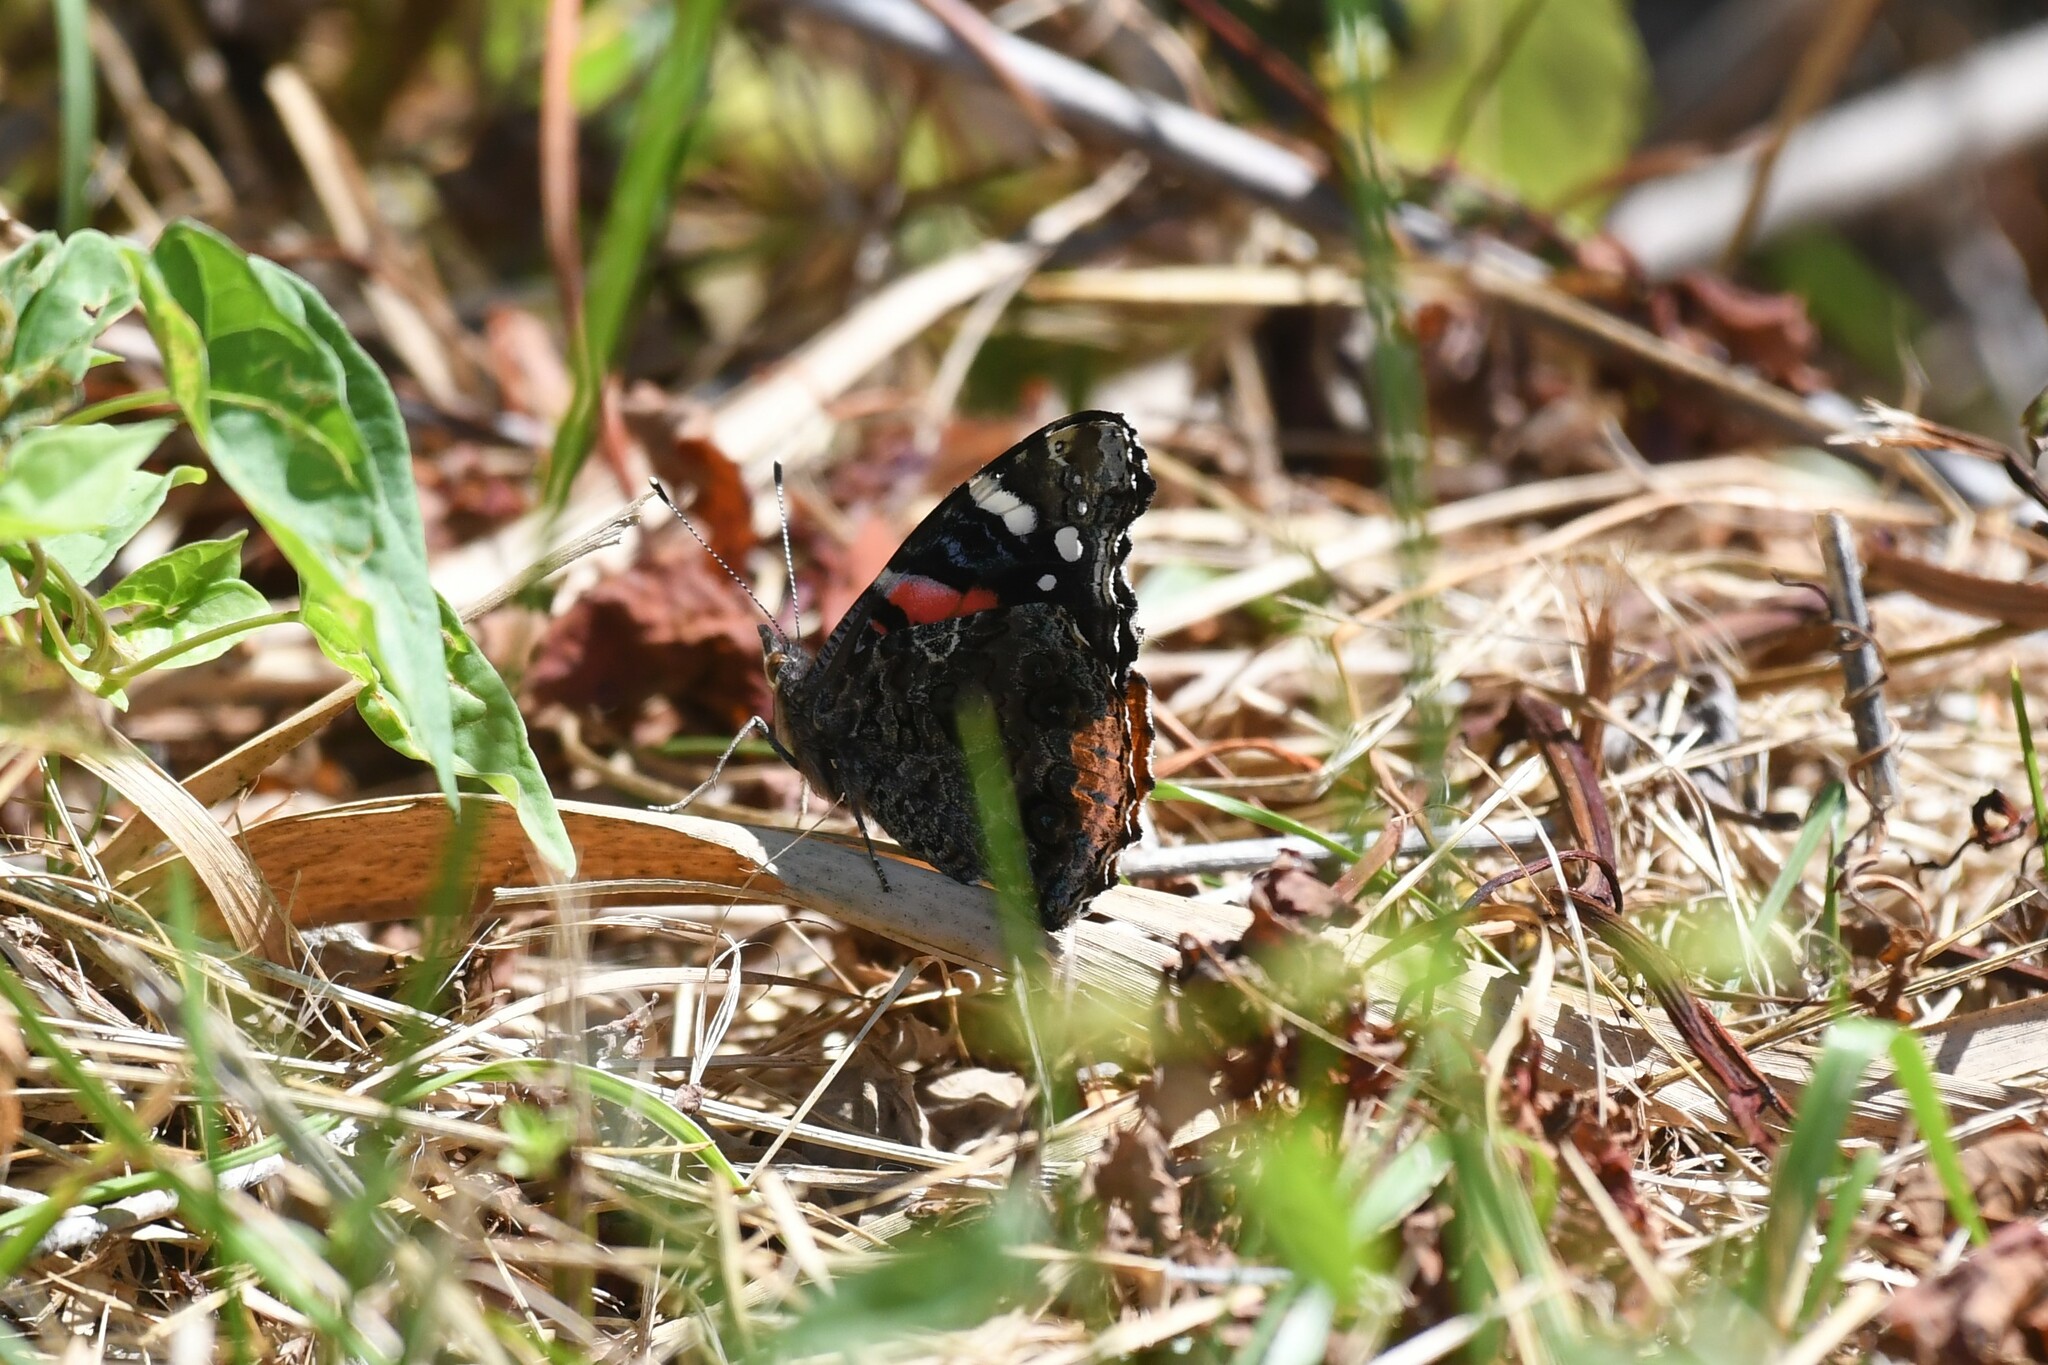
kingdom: Animalia
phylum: Arthropoda
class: Insecta
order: Lepidoptera
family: Nymphalidae
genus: Vanessa
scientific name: Vanessa atalanta
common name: Red admiral
